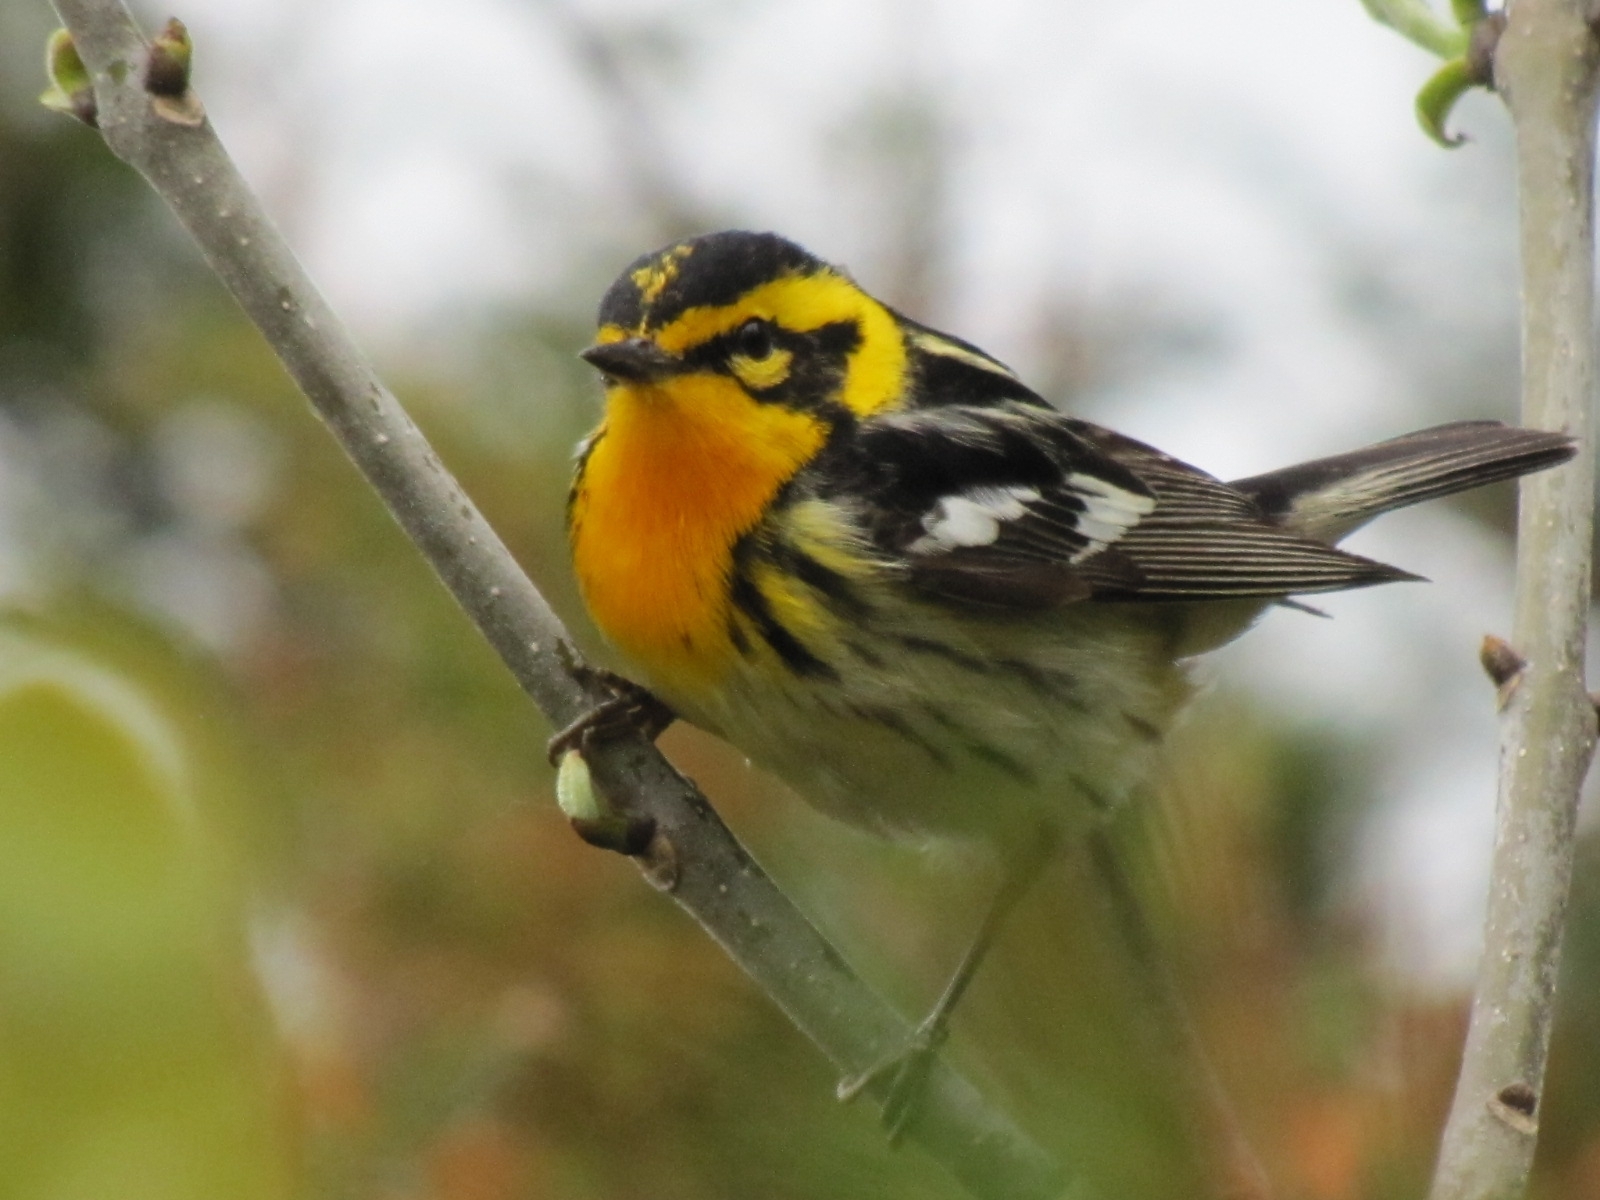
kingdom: Animalia
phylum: Chordata
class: Aves
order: Passeriformes
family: Parulidae
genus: Setophaga
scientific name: Setophaga fusca
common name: Blackburnian warbler
